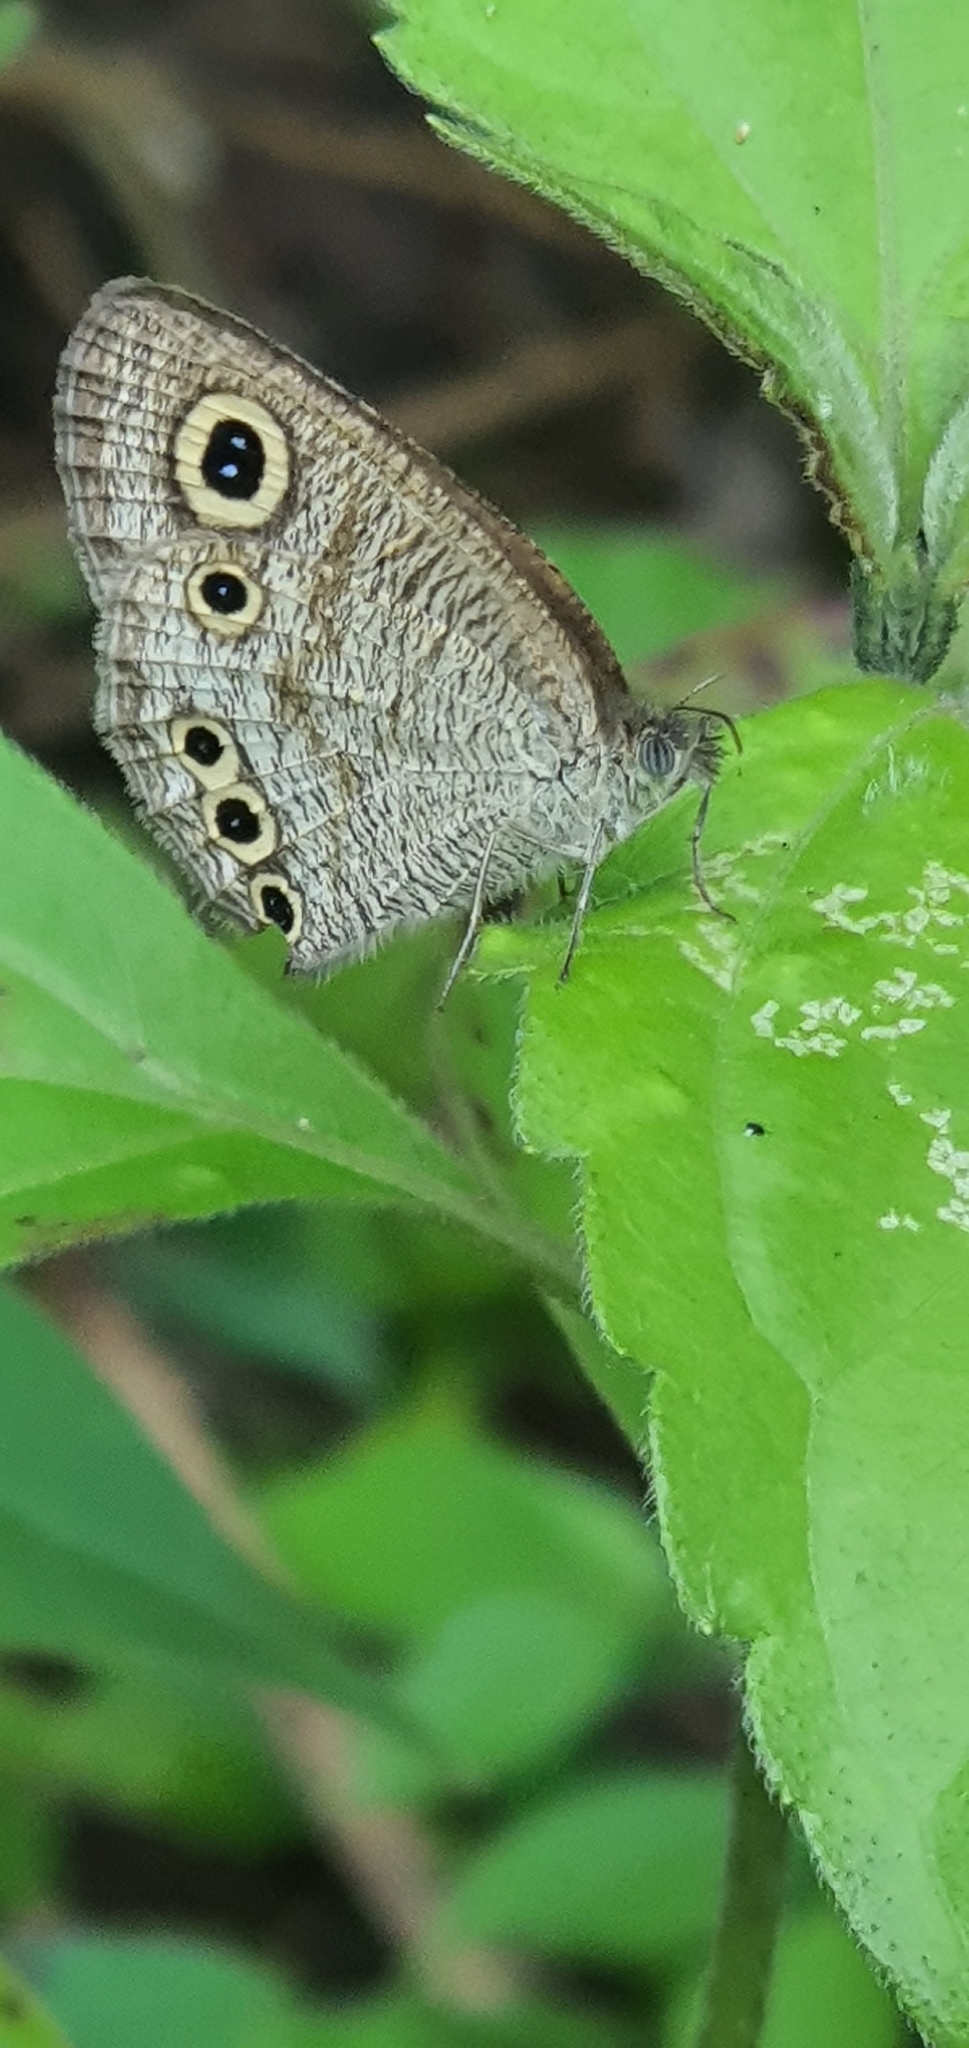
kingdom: Animalia
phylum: Arthropoda
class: Insecta
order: Lepidoptera
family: Nymphalidae
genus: Ypthima
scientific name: Ypthima huebneri
